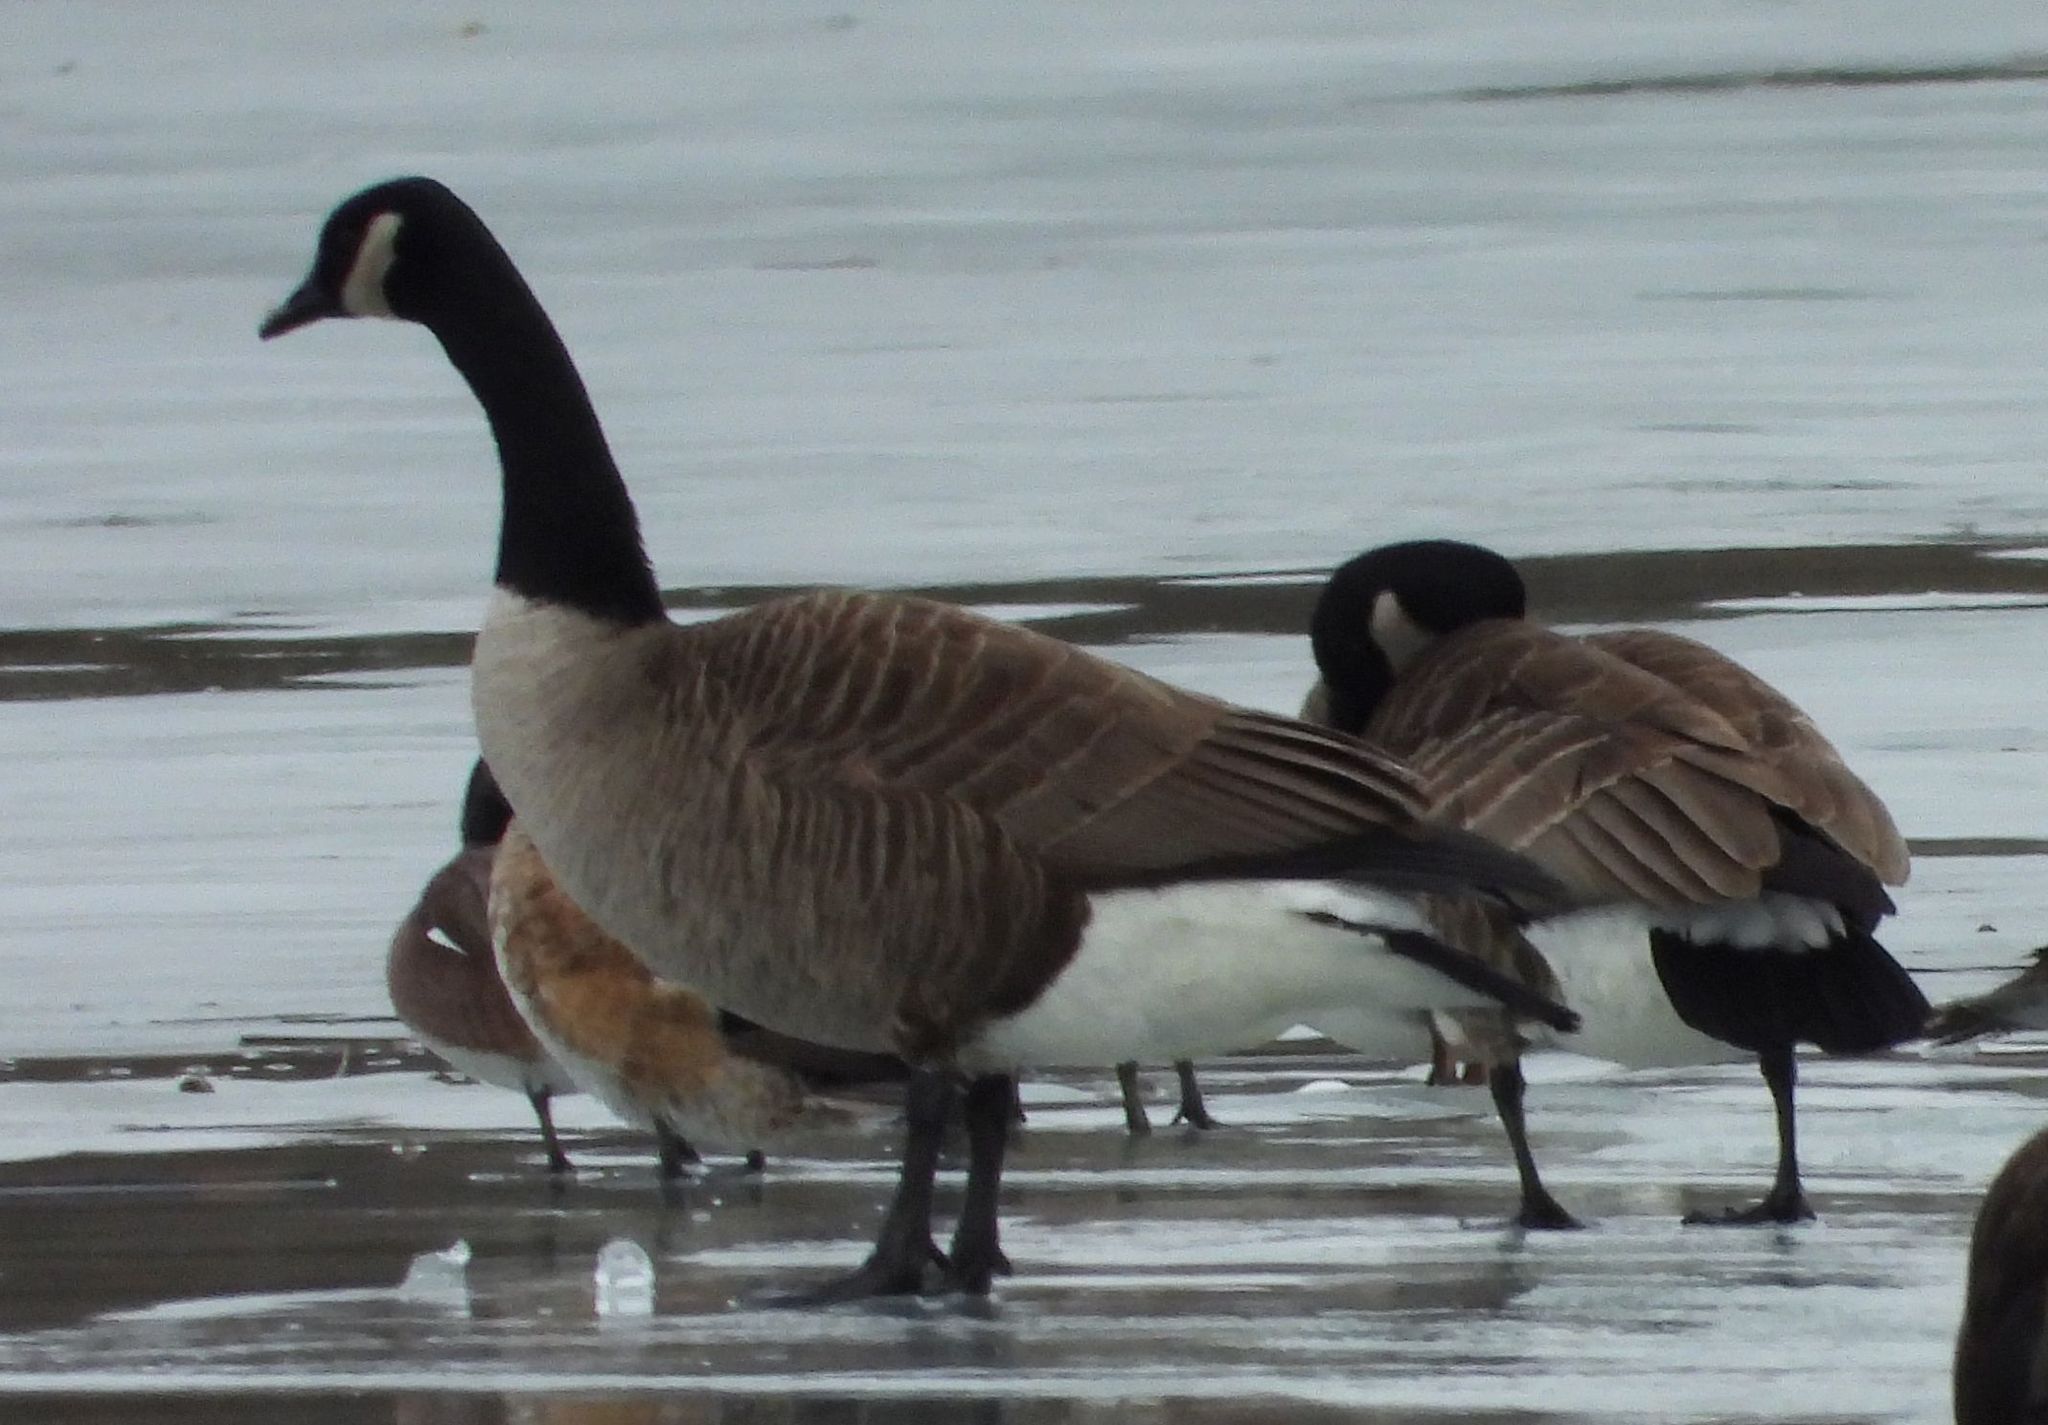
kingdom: Animalia
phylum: Chordata
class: Aves
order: Anseriformes
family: Anatidae
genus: Branta
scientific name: Branta canadensis
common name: Canada goose
